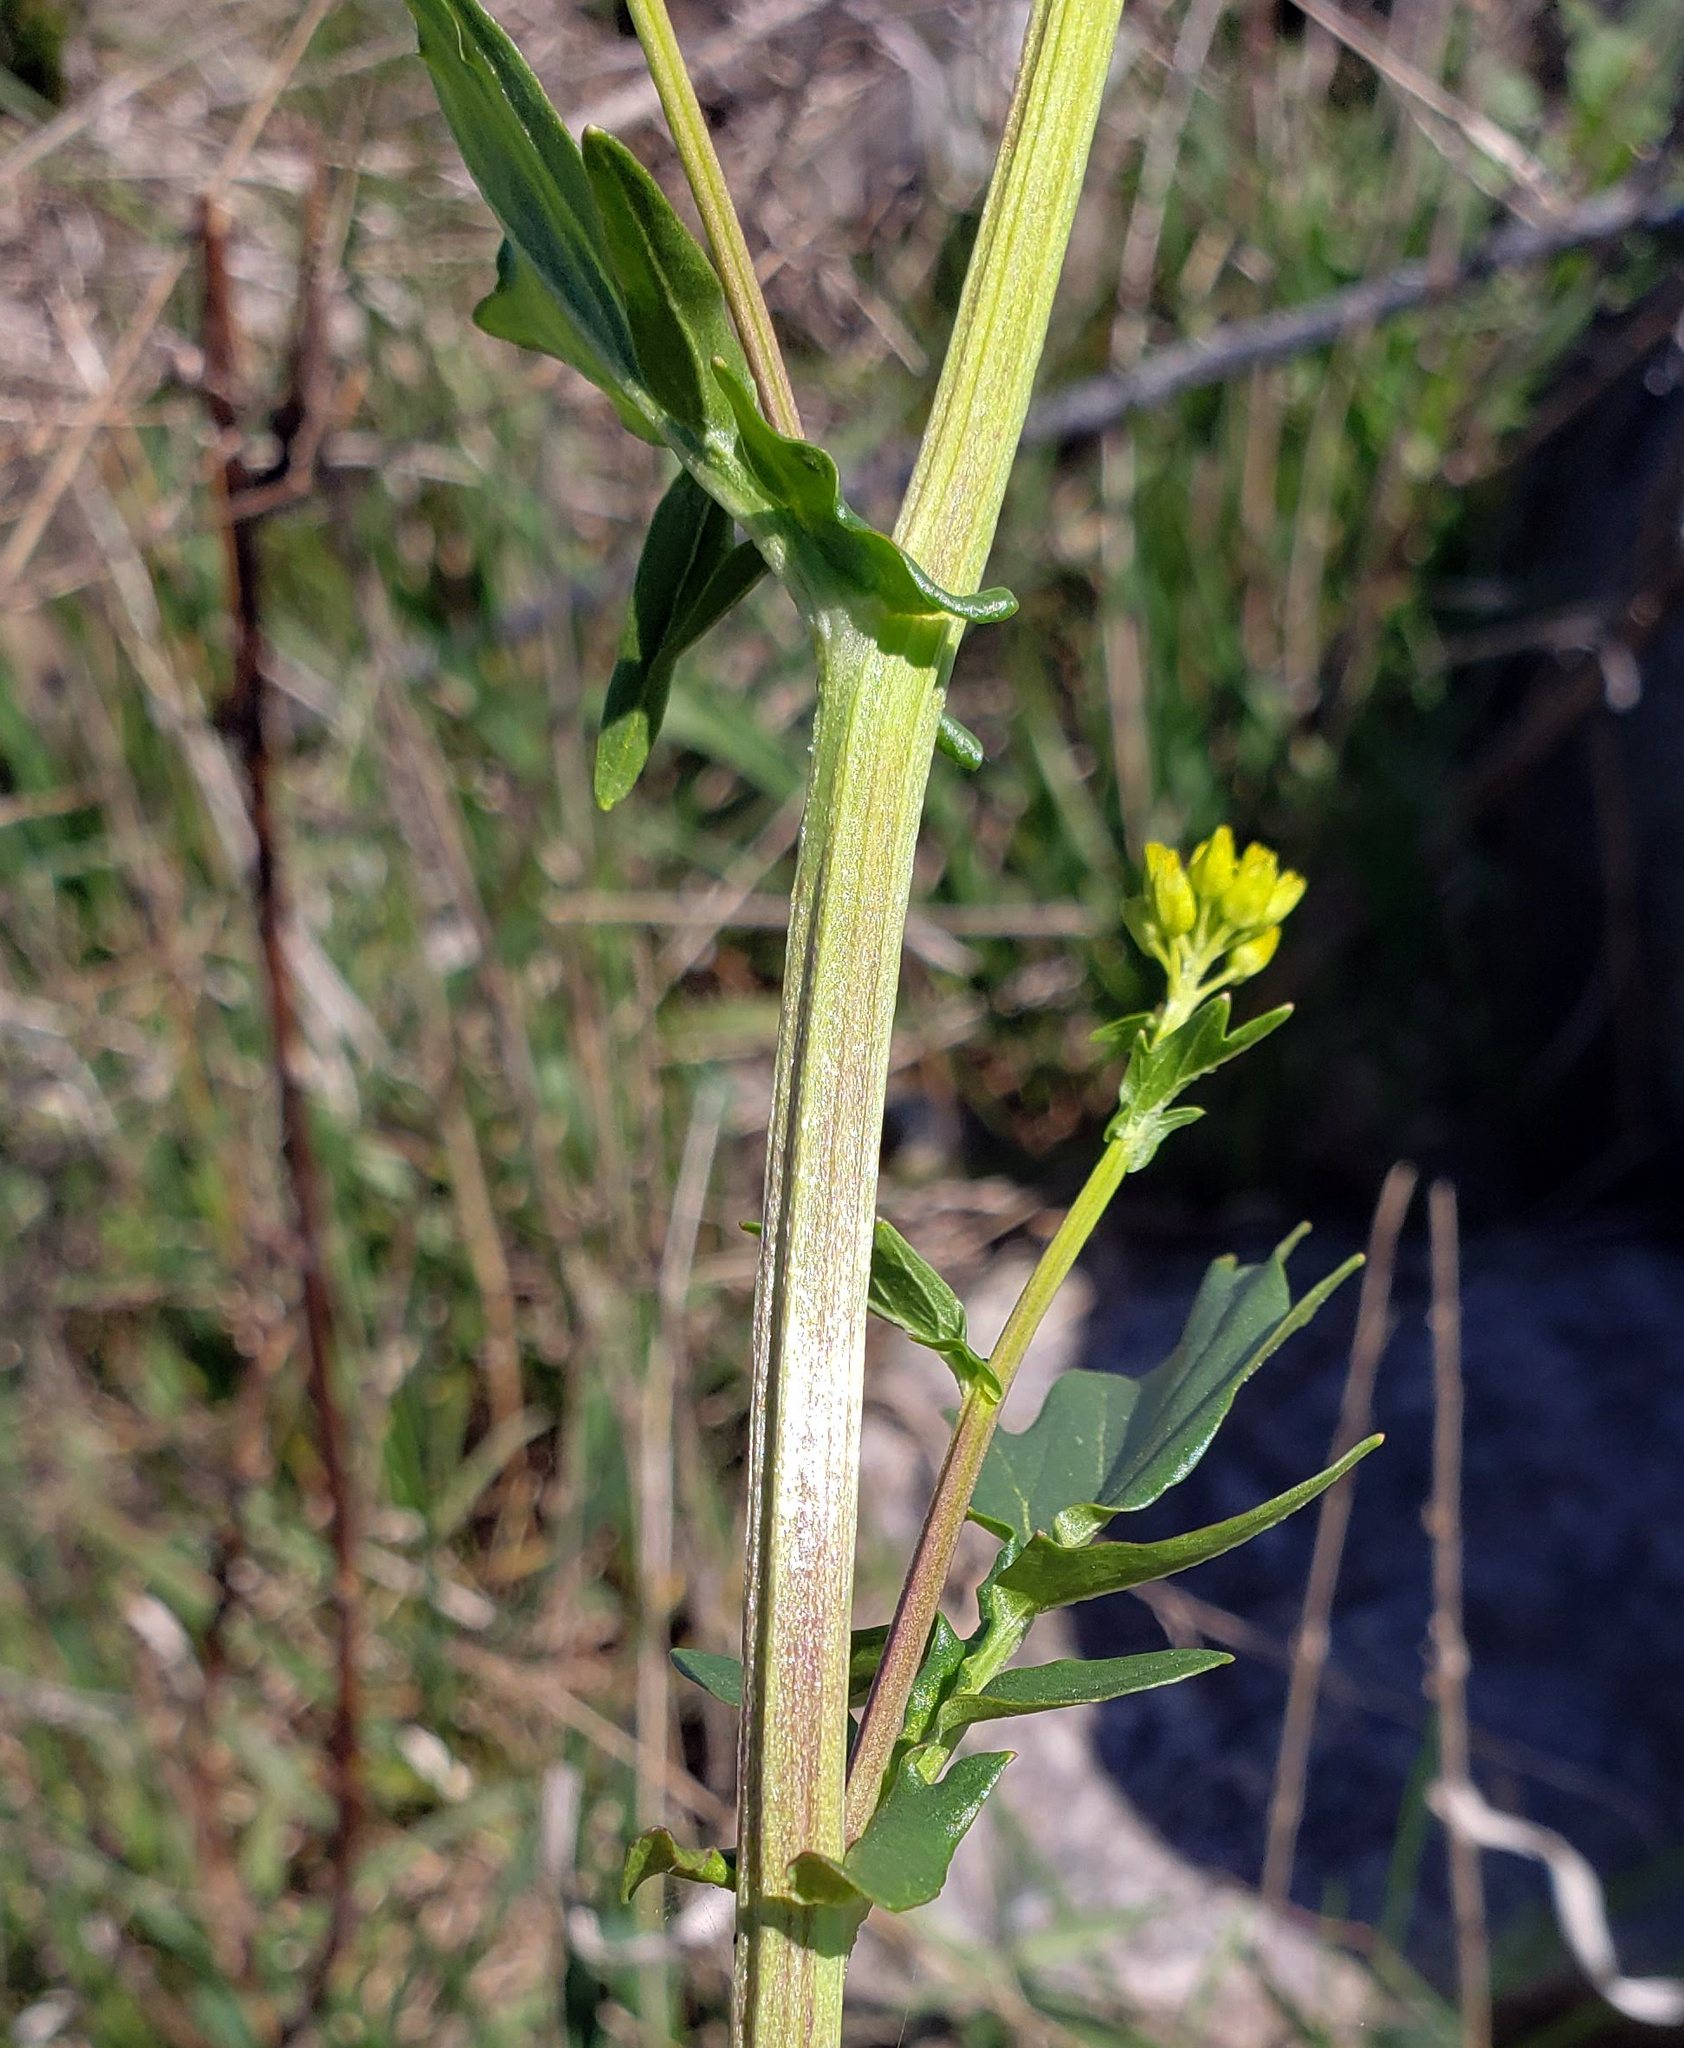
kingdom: Plantae
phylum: Tracheophyta
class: Magnoliopsida
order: Brassicales
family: Brassicaceae
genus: Barbarea
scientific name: Barbarea vulgaris
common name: Cressy-greens
